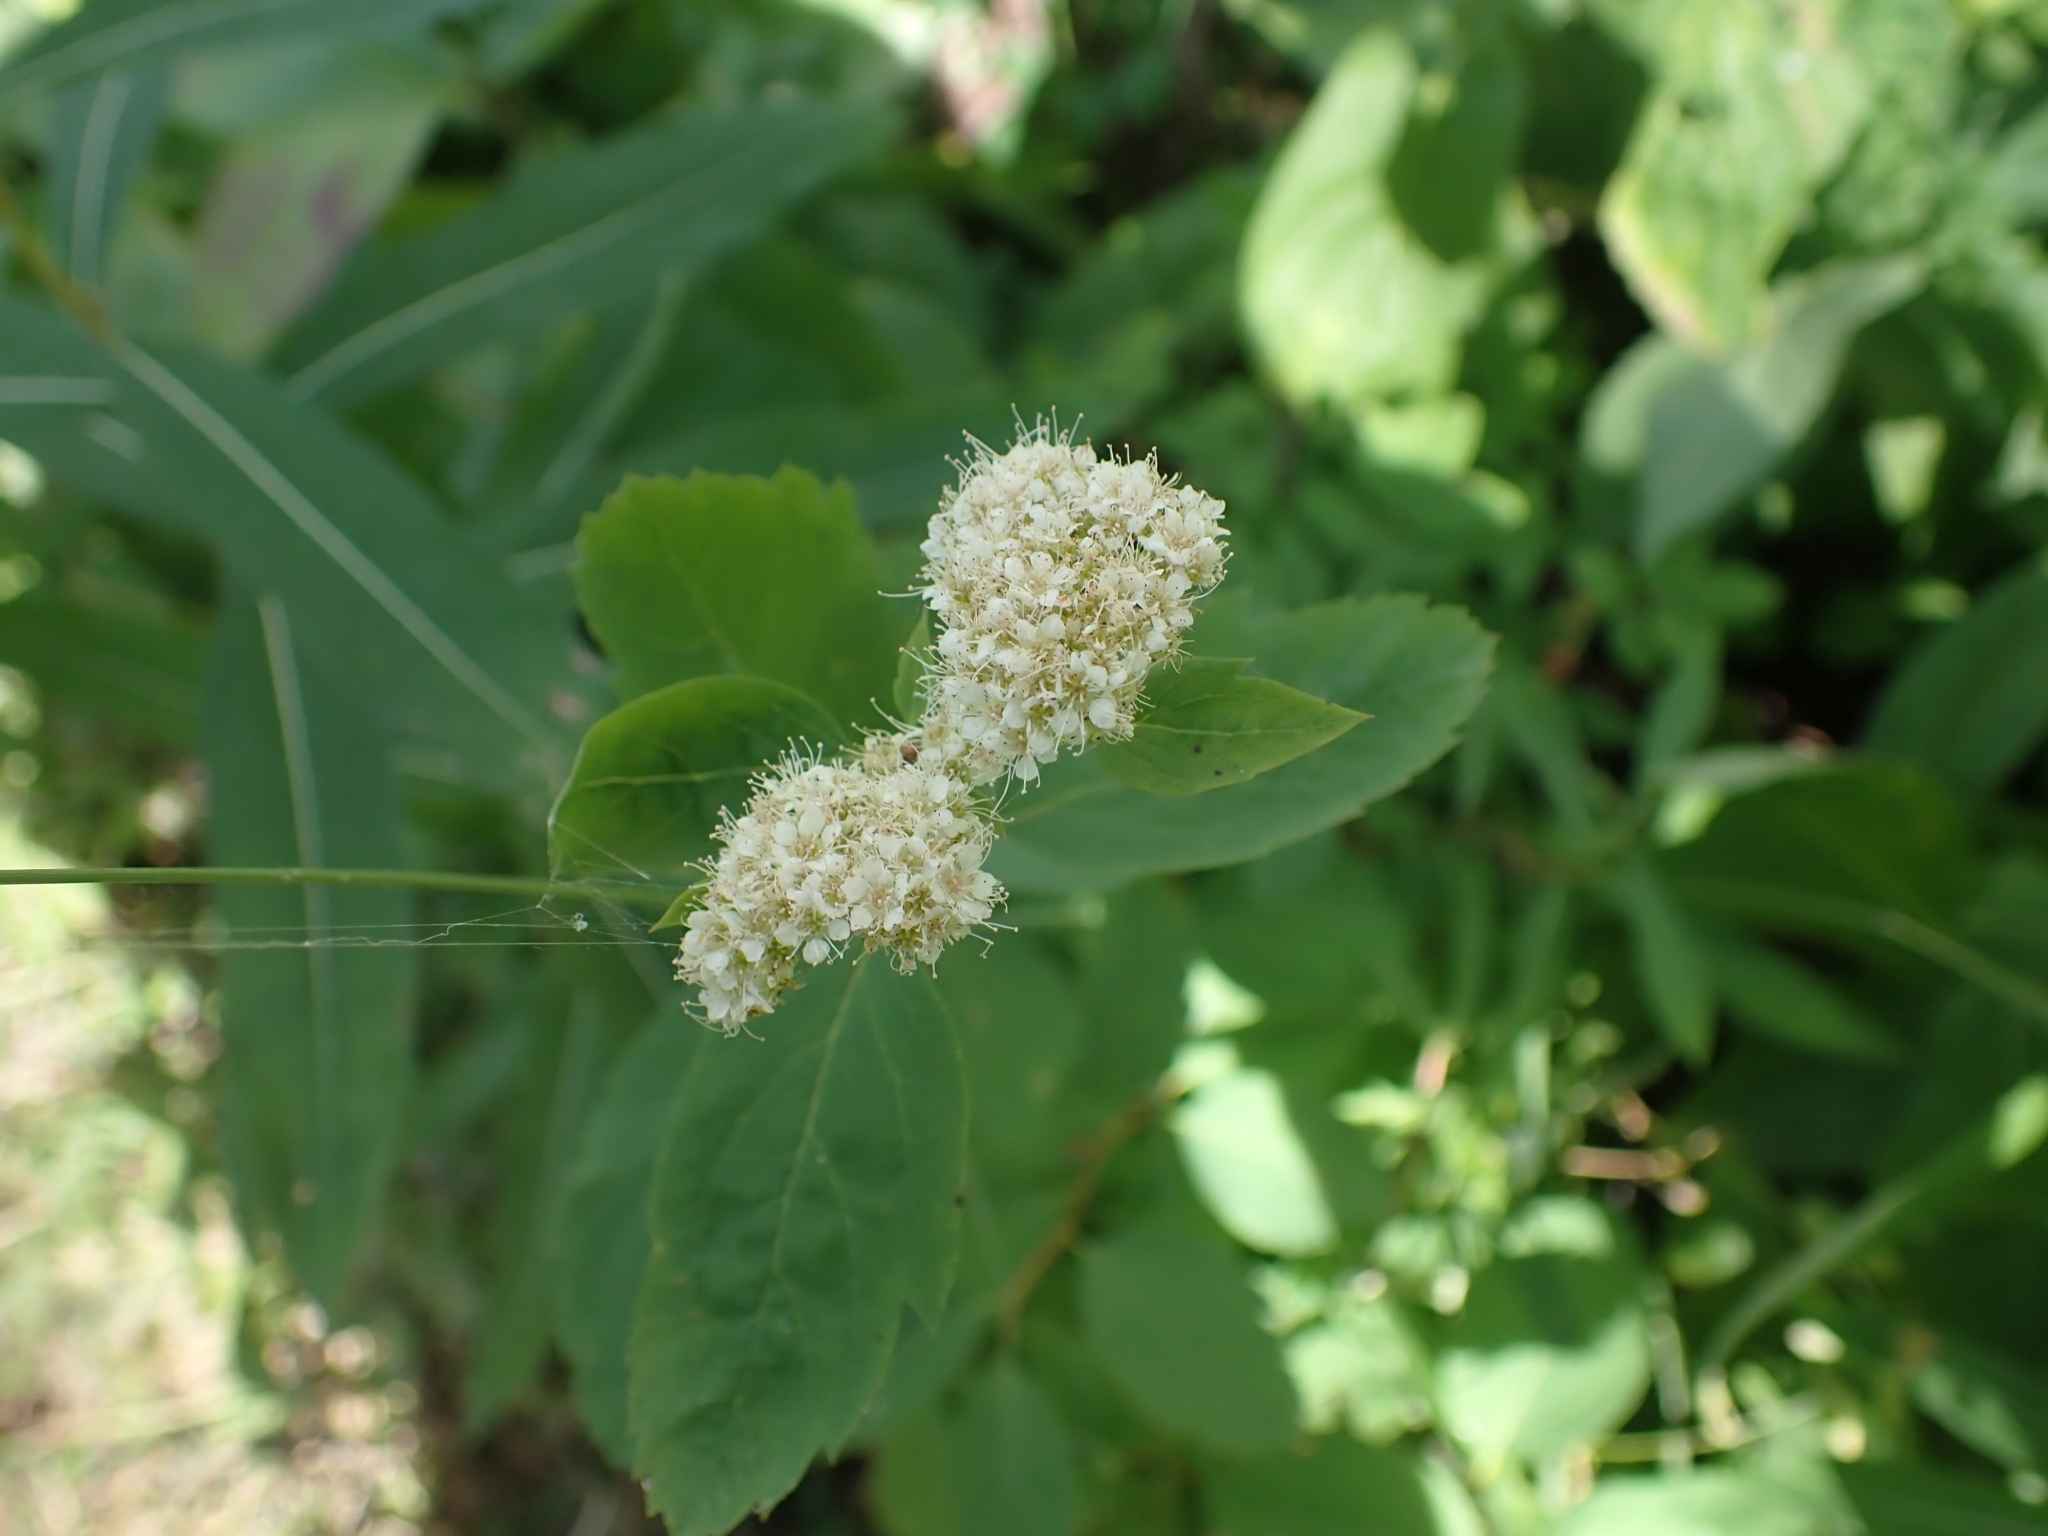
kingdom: Plantae
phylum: Tracheophyta
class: Magnoliopsida
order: Rosales
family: Rosaceae
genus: Spiraea
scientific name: Spiraea lucida
